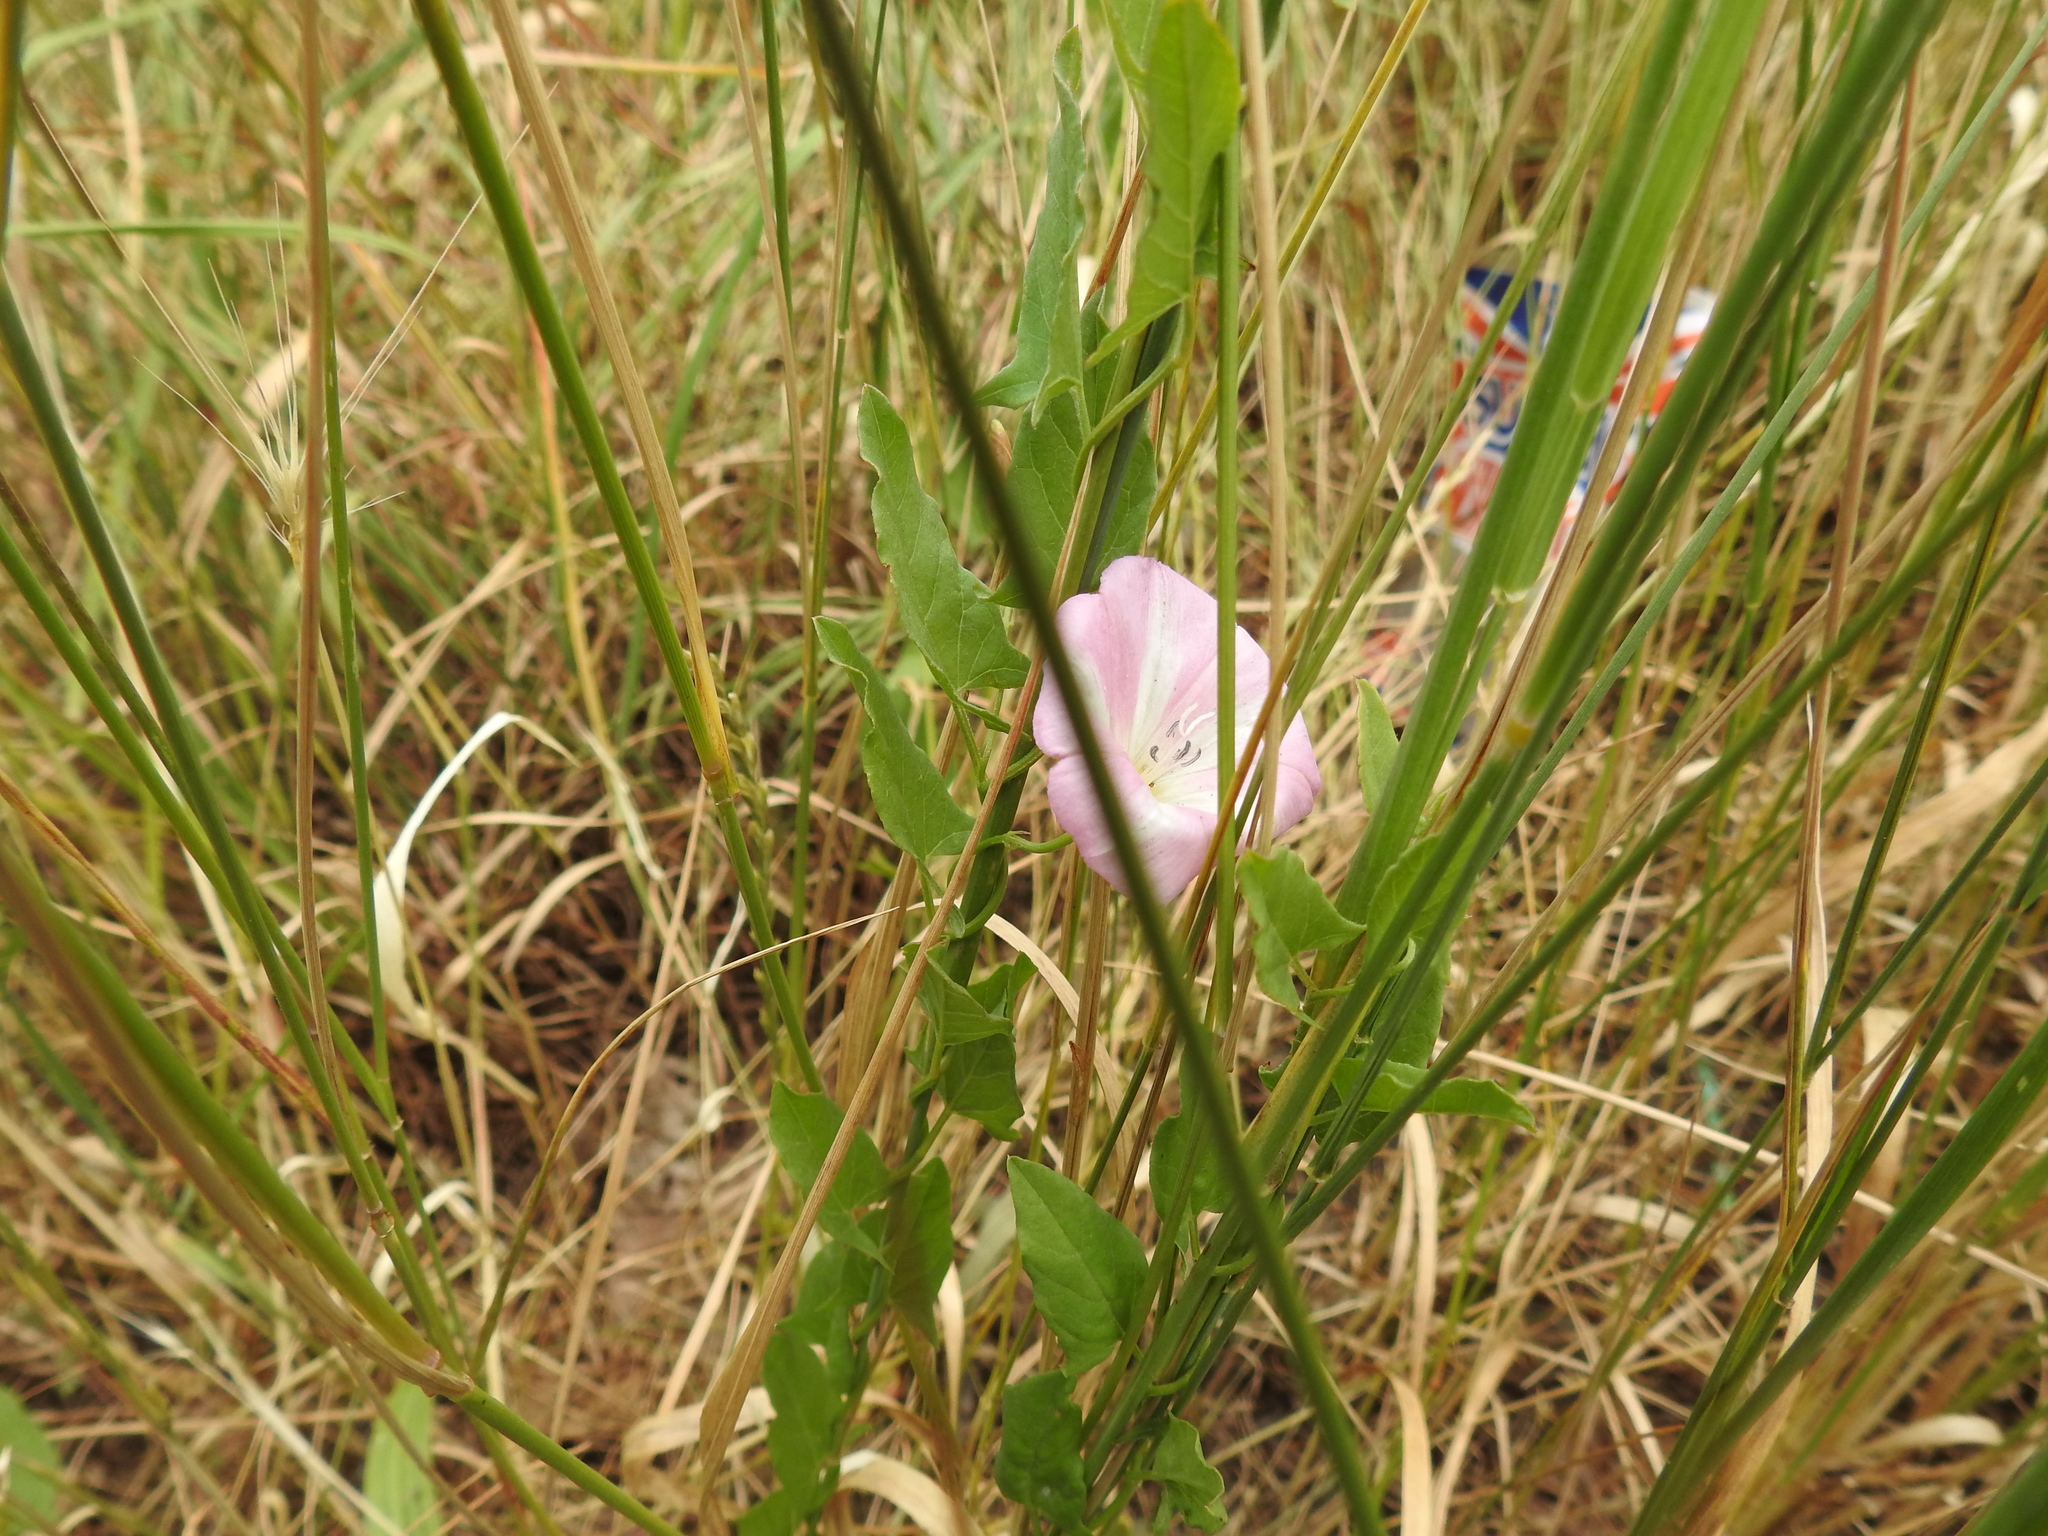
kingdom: Plantae
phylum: Tracheophyta
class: Magnoliopsida
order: Solanales
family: Convolvulaceae
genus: Convolvulus
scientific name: Convolvulus arvensis
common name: Field bindweed
